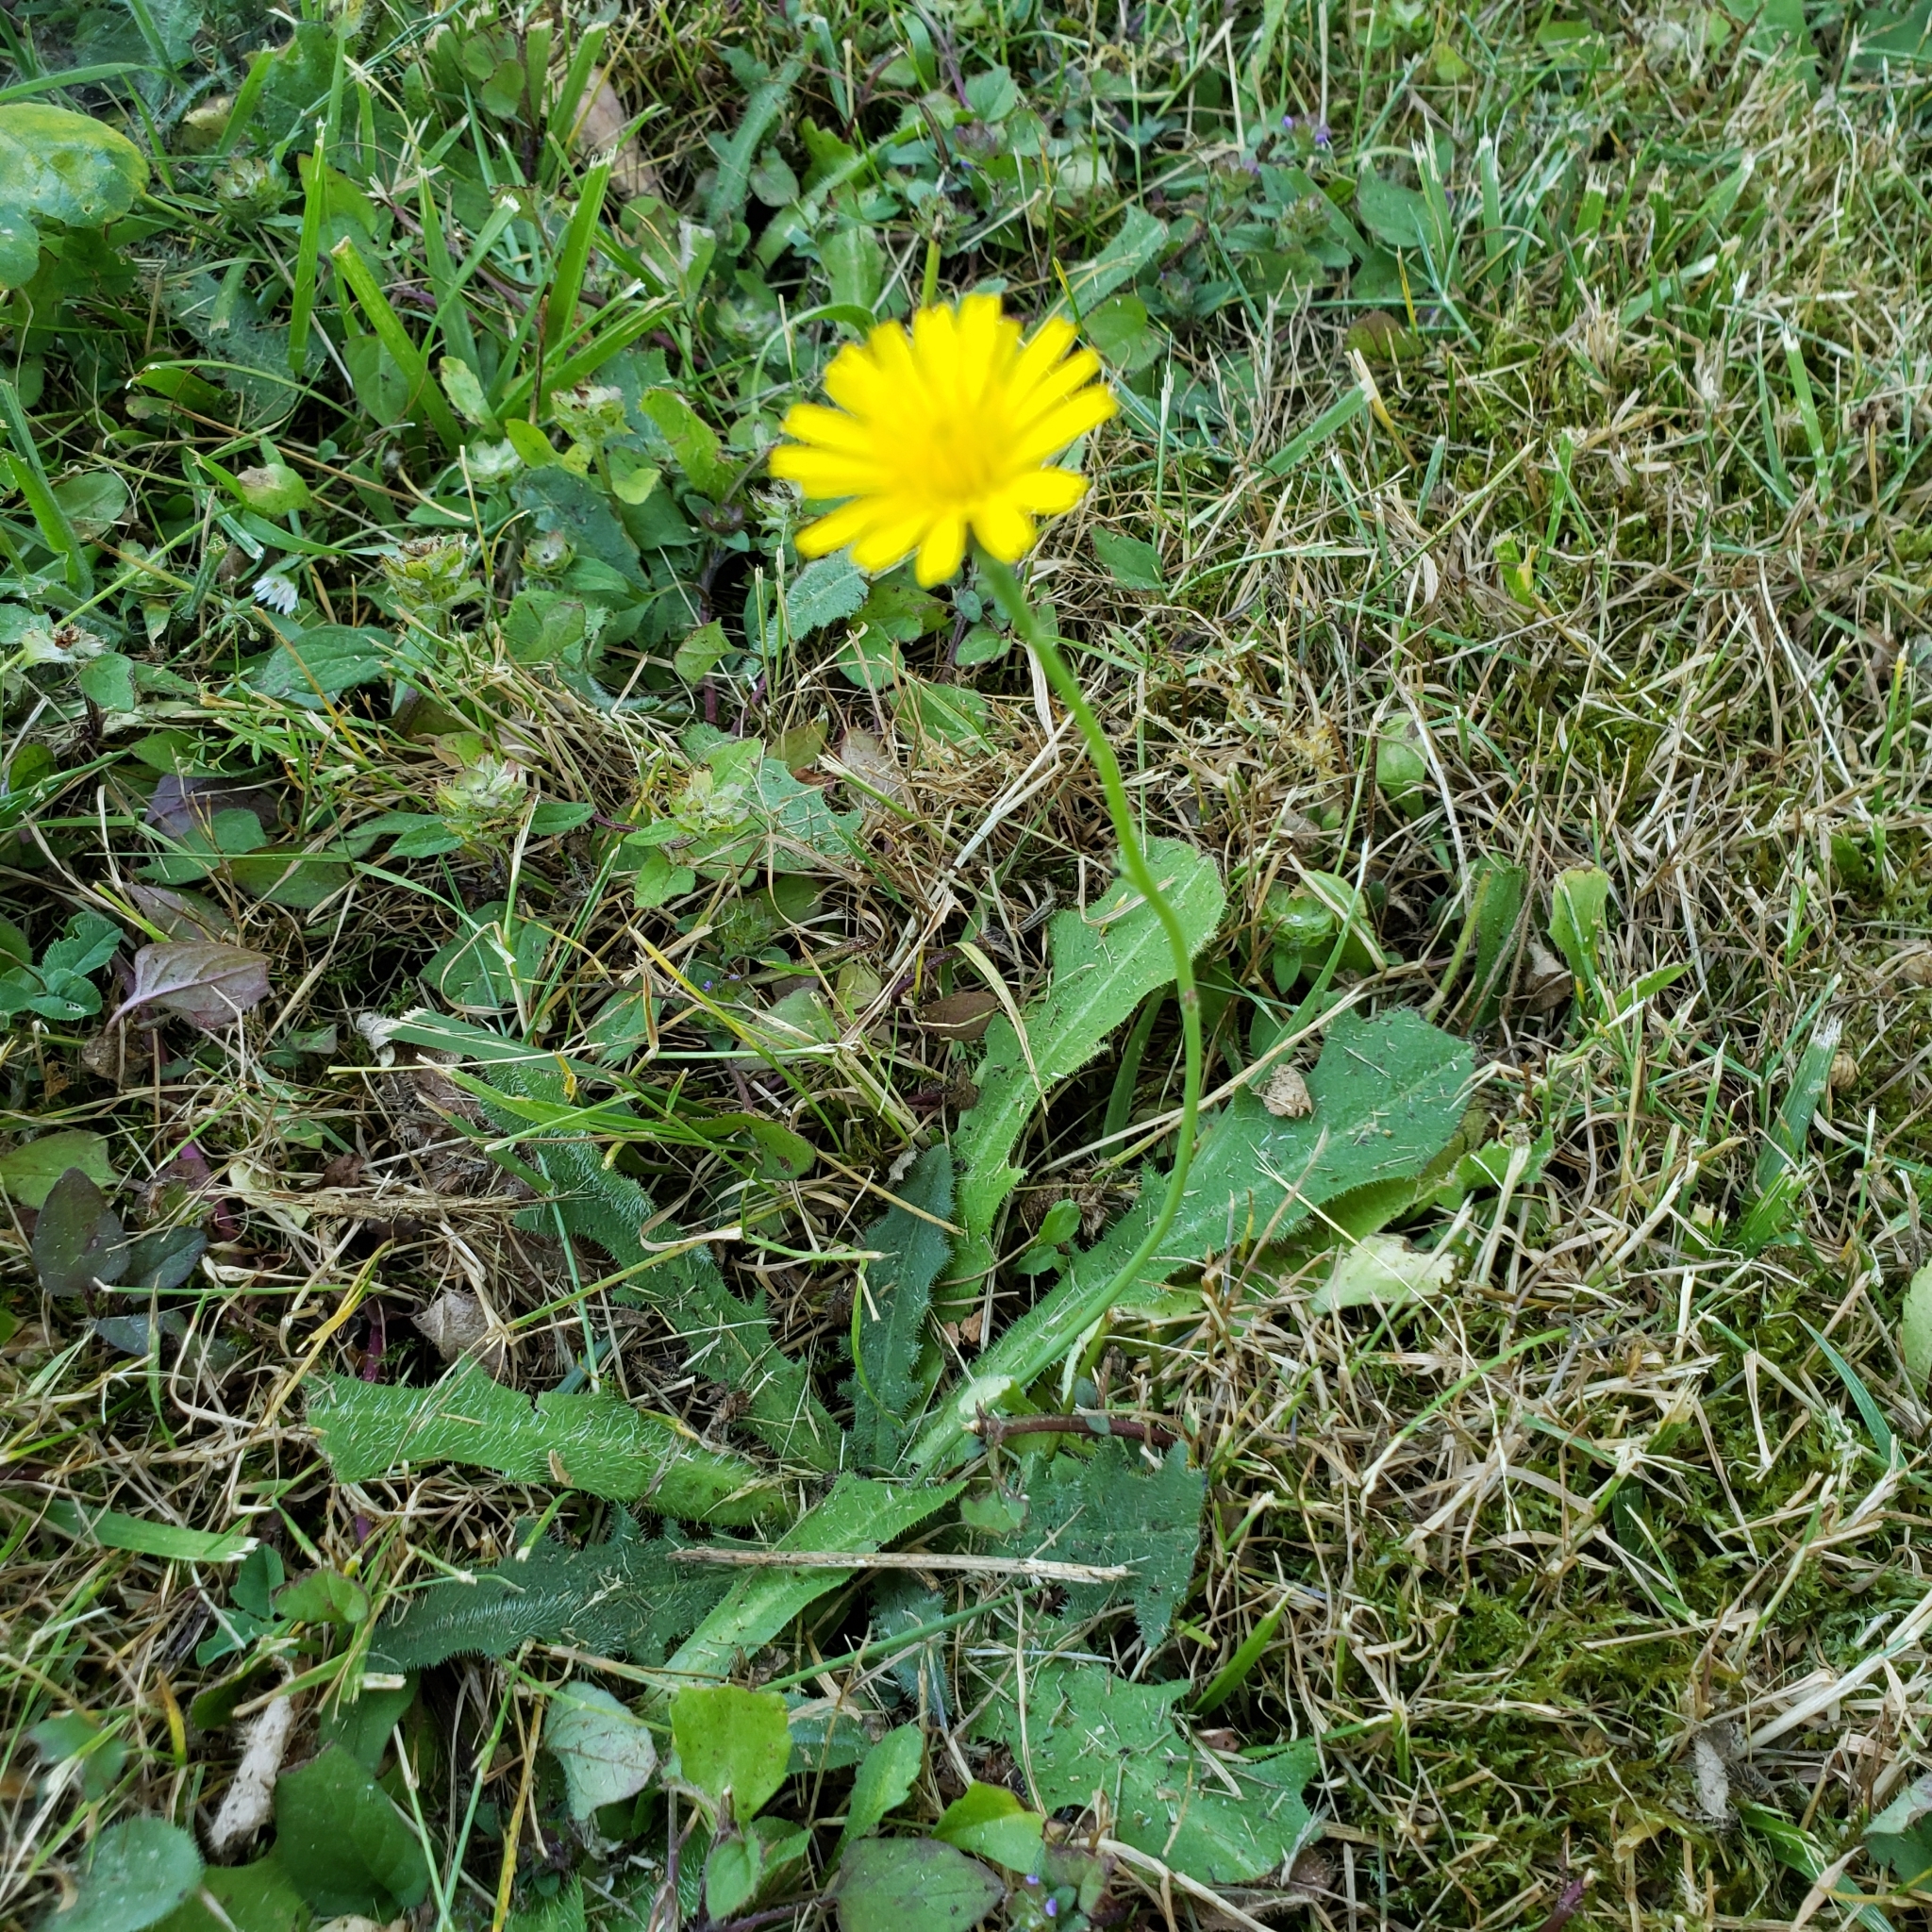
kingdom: Plantae
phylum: Tracheophyta
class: Magnoliopsida
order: Asterales
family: Asteraceae
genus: Hypochaeris
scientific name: Hypochaeris radicata
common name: Flatweed
